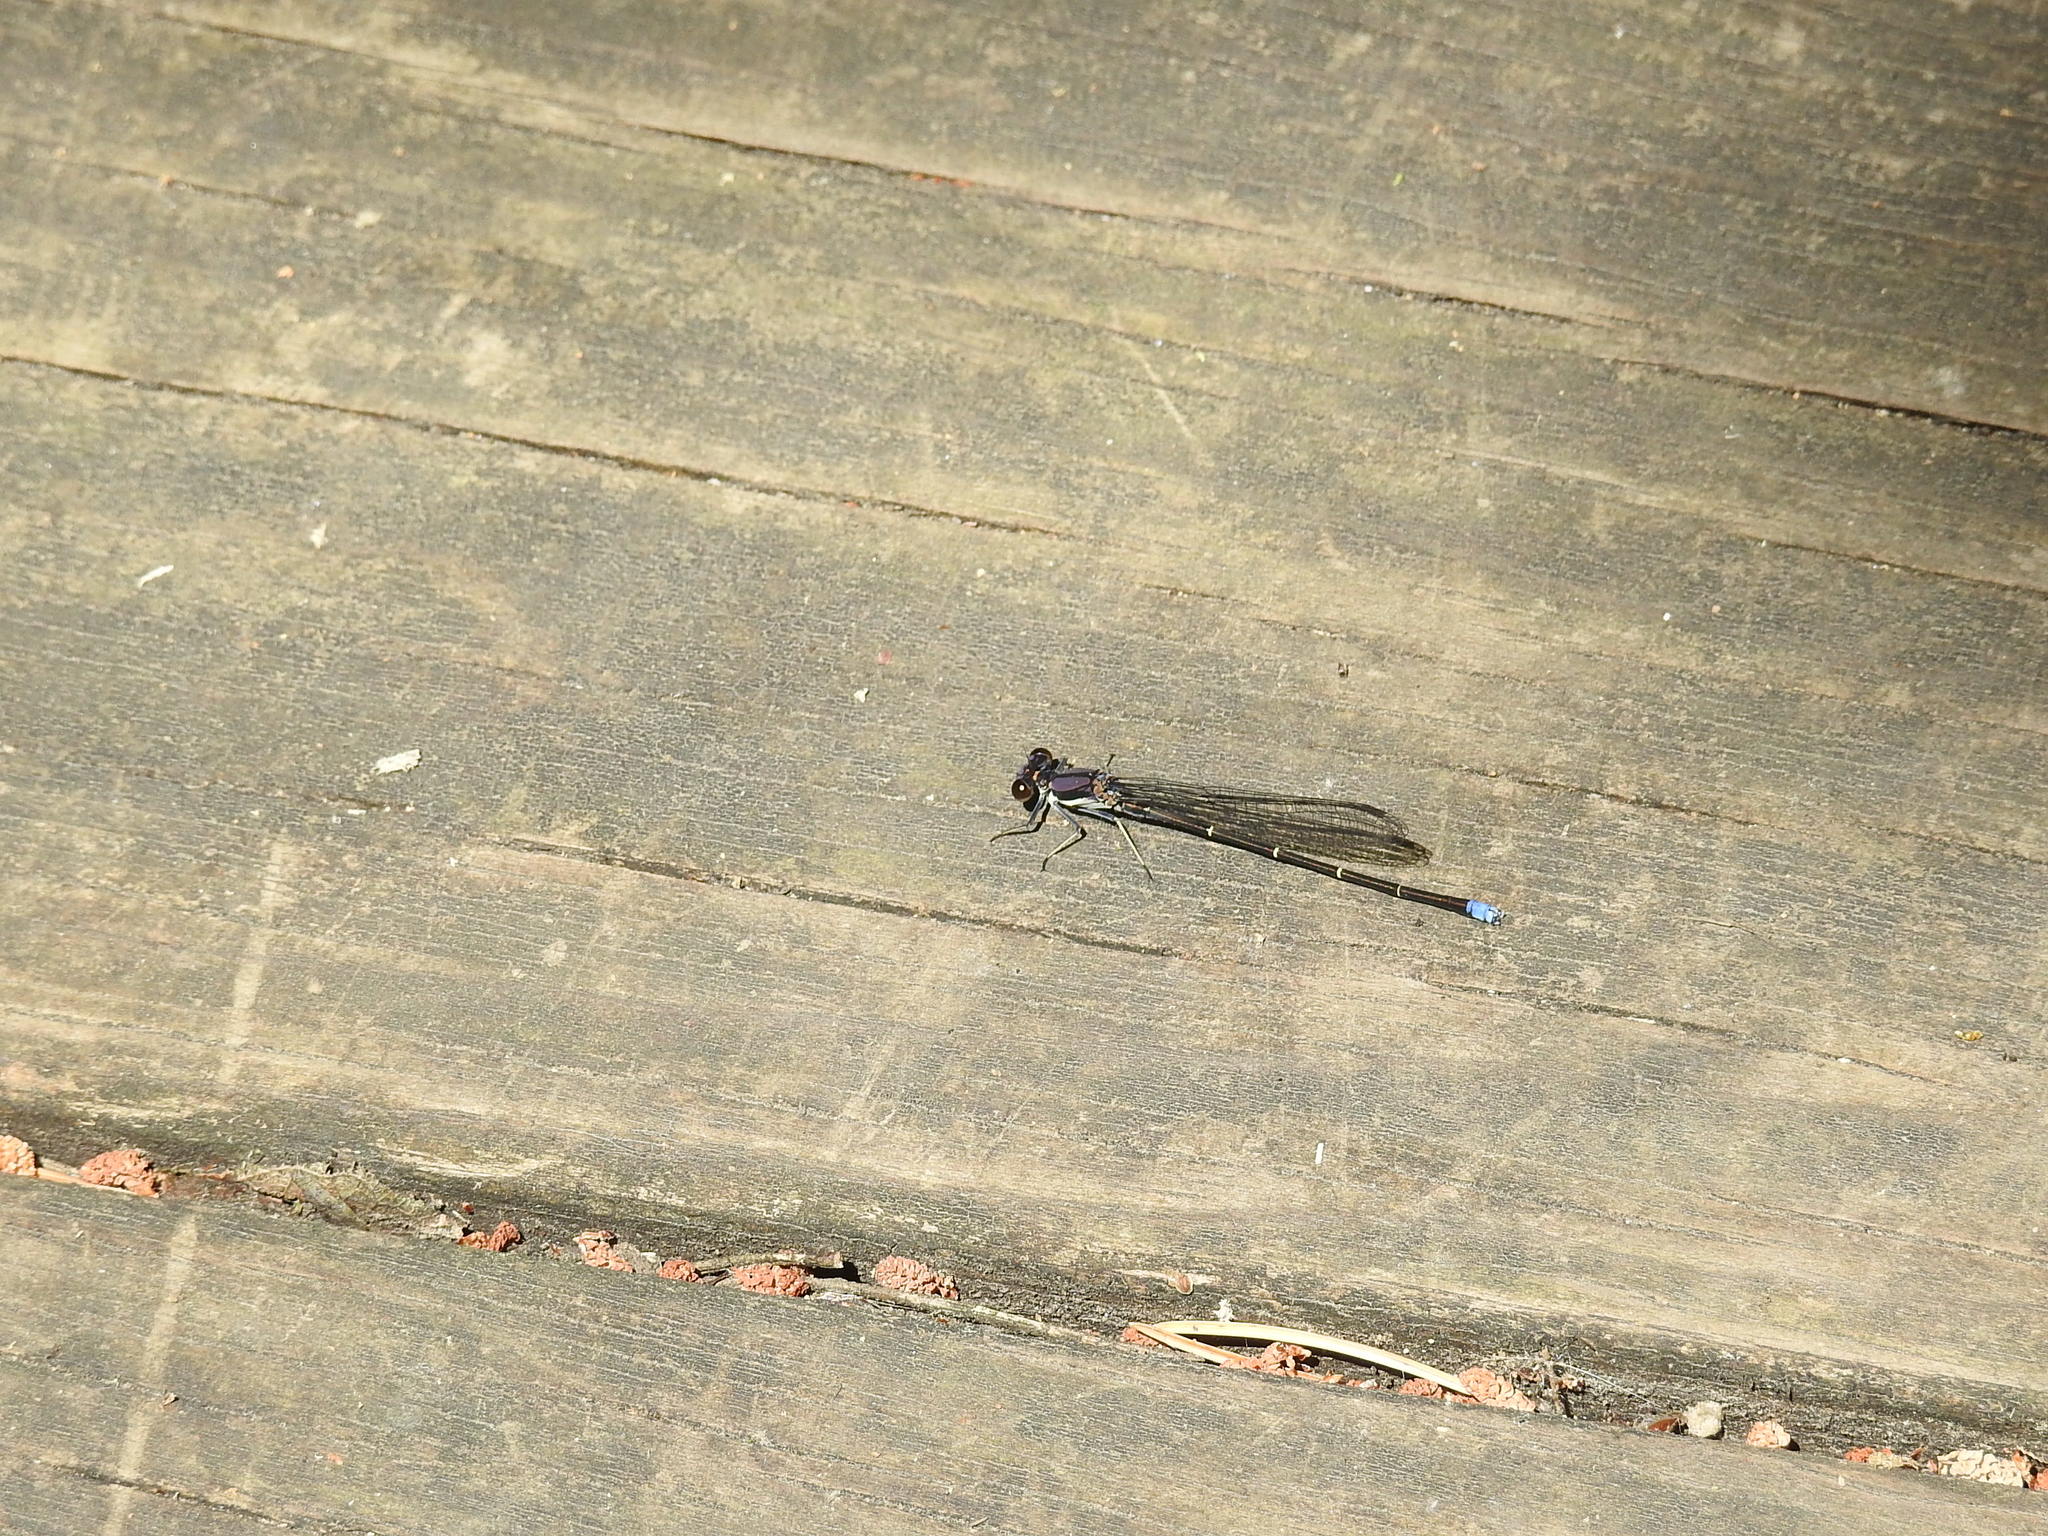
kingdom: Animalia
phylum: Arthropoda
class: Insecta
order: Odonata
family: Coenagrionidae
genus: Argia
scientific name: Argia tibialis
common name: Blue-tipped dancer
